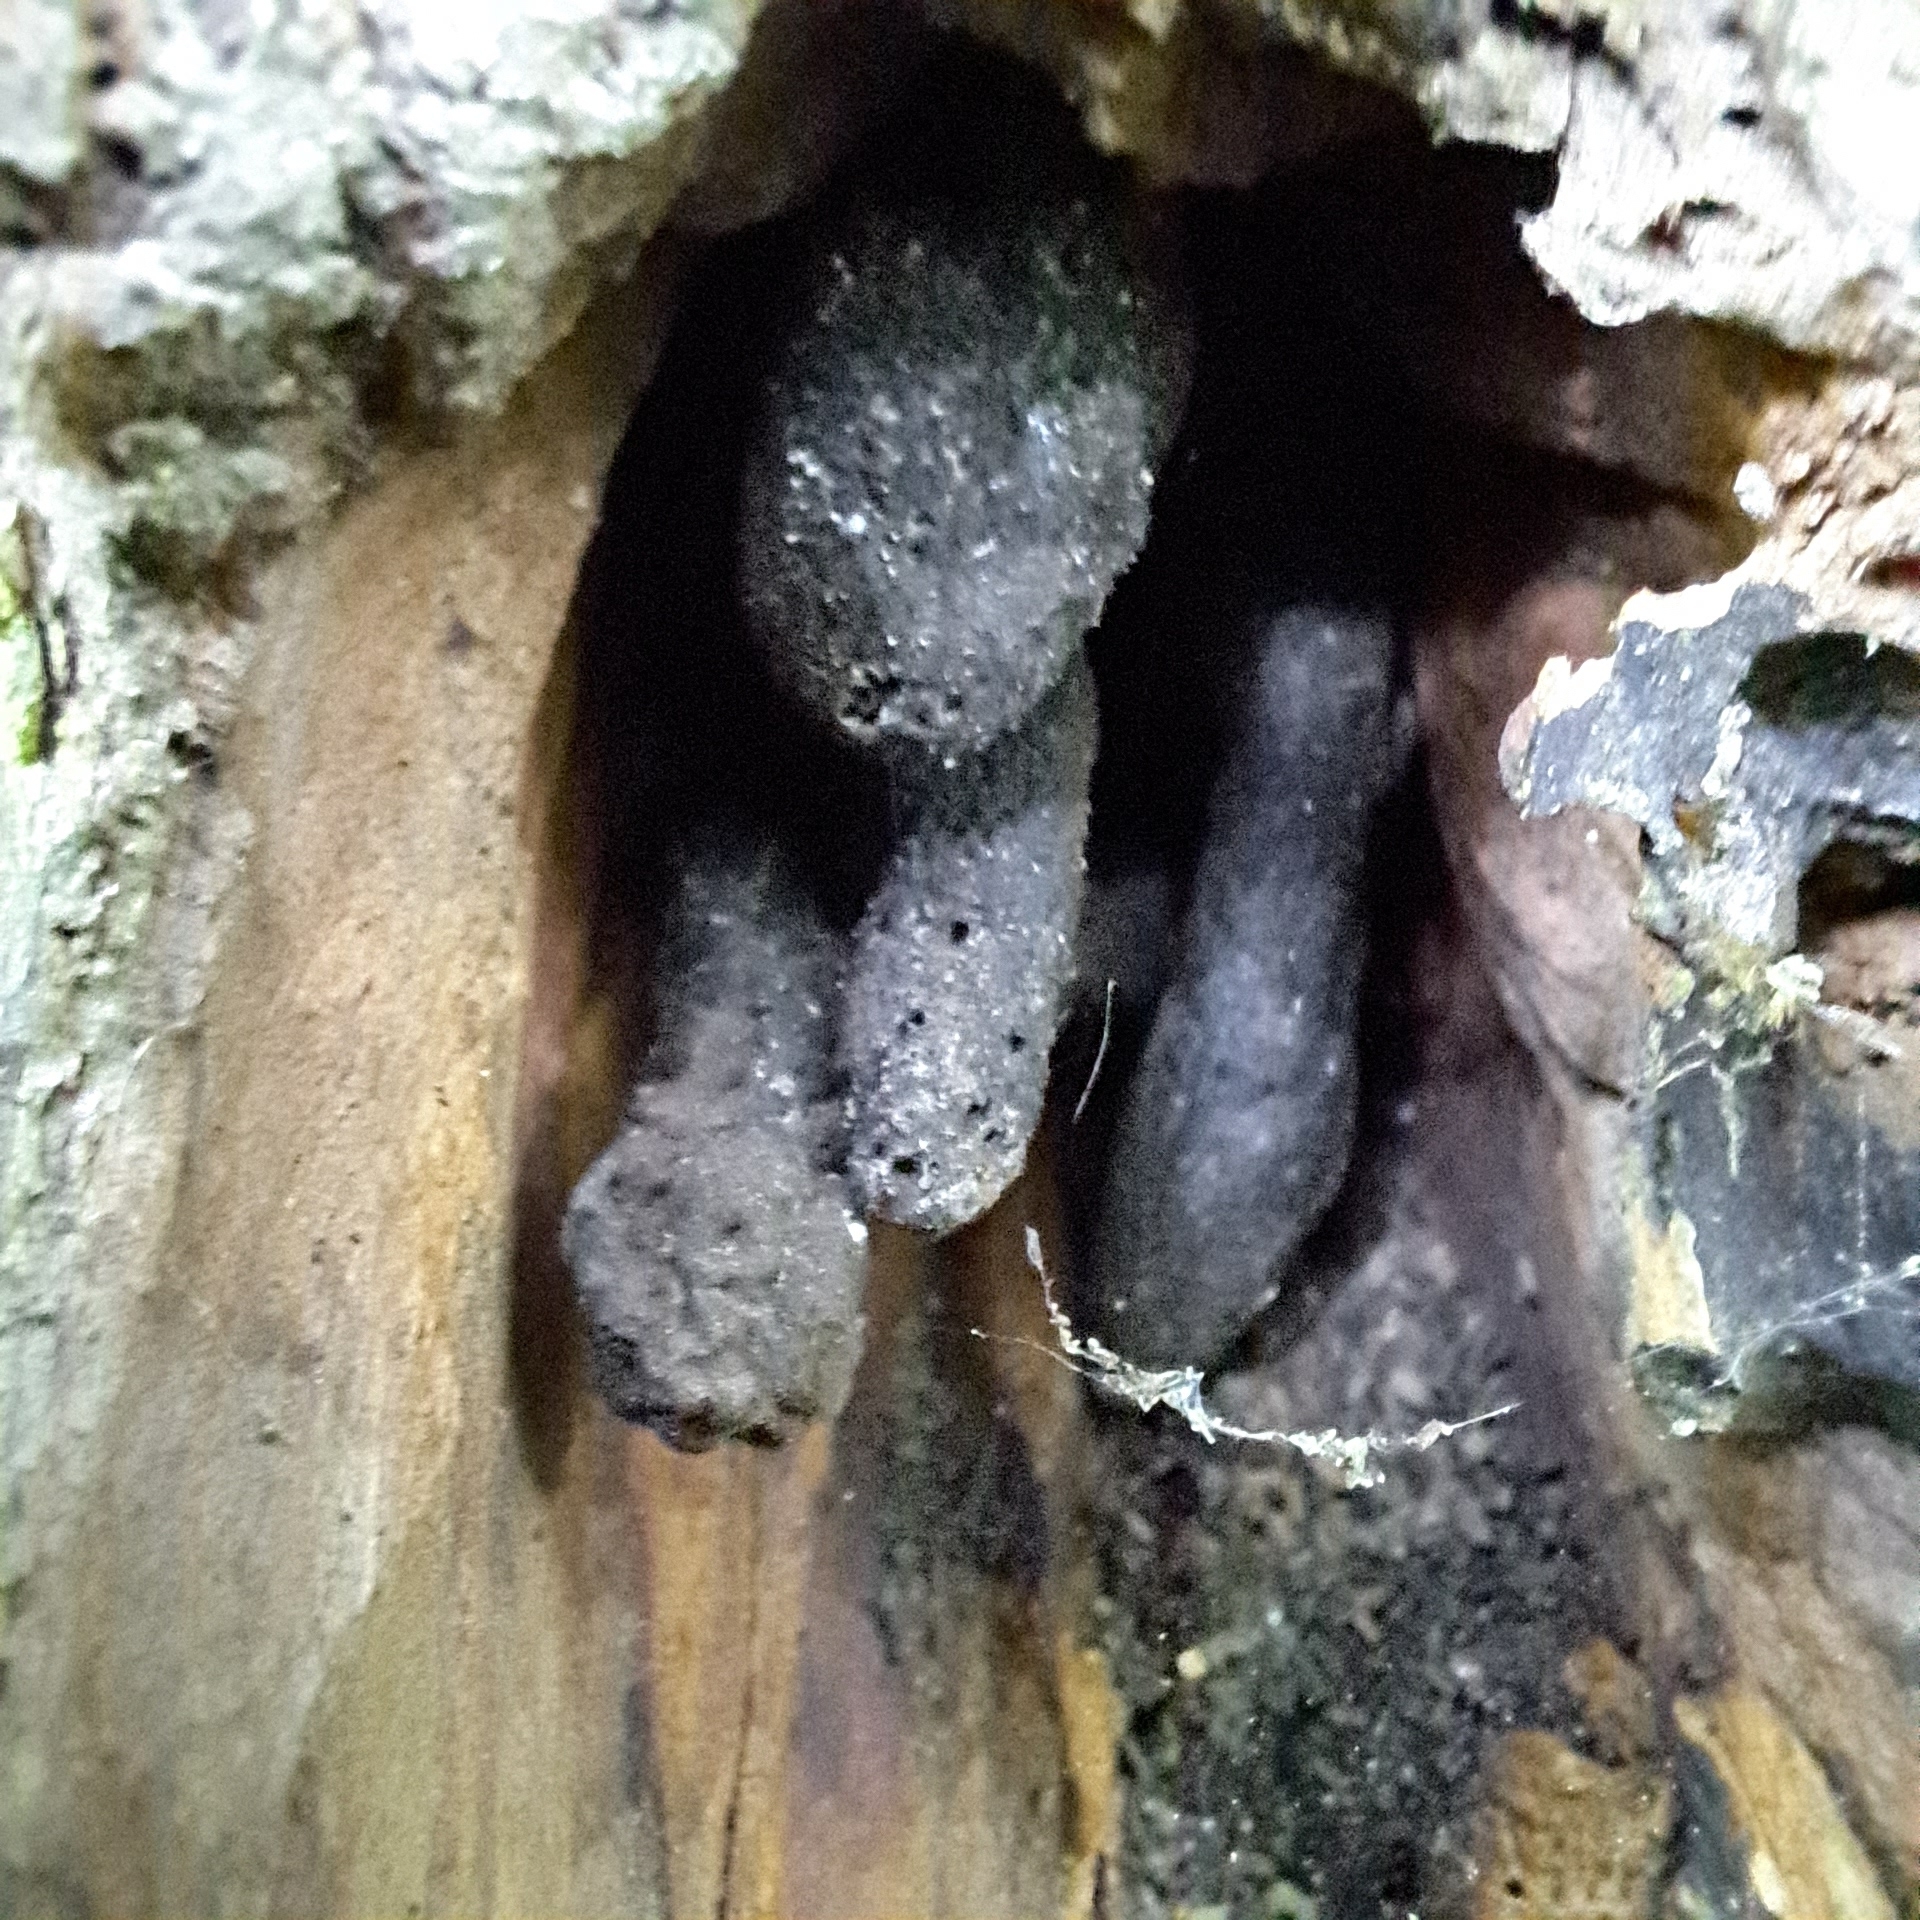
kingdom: Fungi
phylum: Ascomycota
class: Sordariomycetes
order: Xylariales
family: Xylariaceae
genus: Xylaria
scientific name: Xylaria polymorpha
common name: Dead man's fingers
